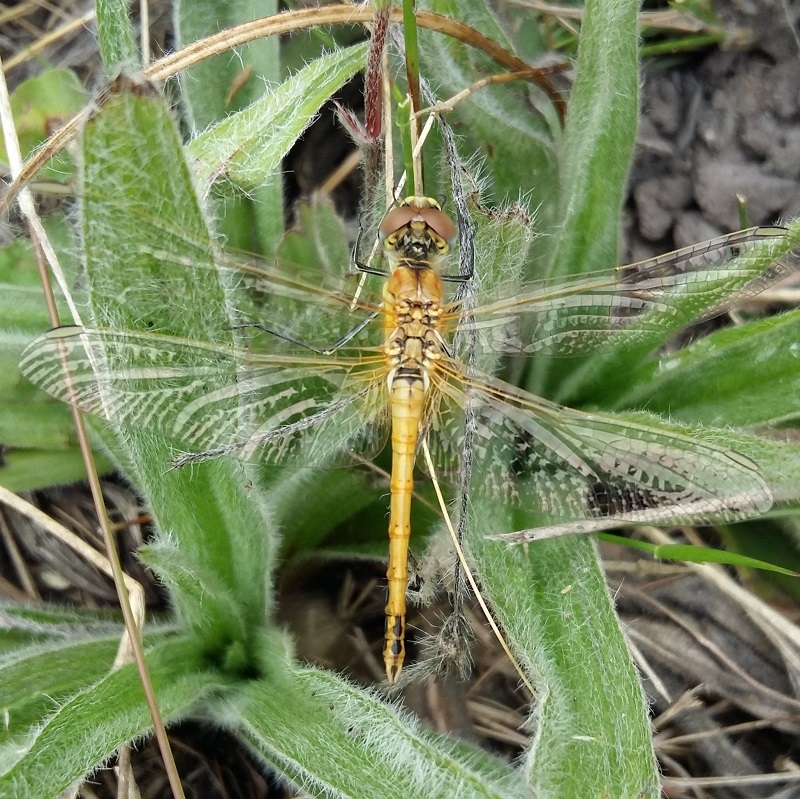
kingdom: Animalia
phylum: Arthropoda
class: Insecta
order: Odonata
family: Libellulidae
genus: Sympetrum
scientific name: Sympetrum fonscolombii
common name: Red-veined darter
